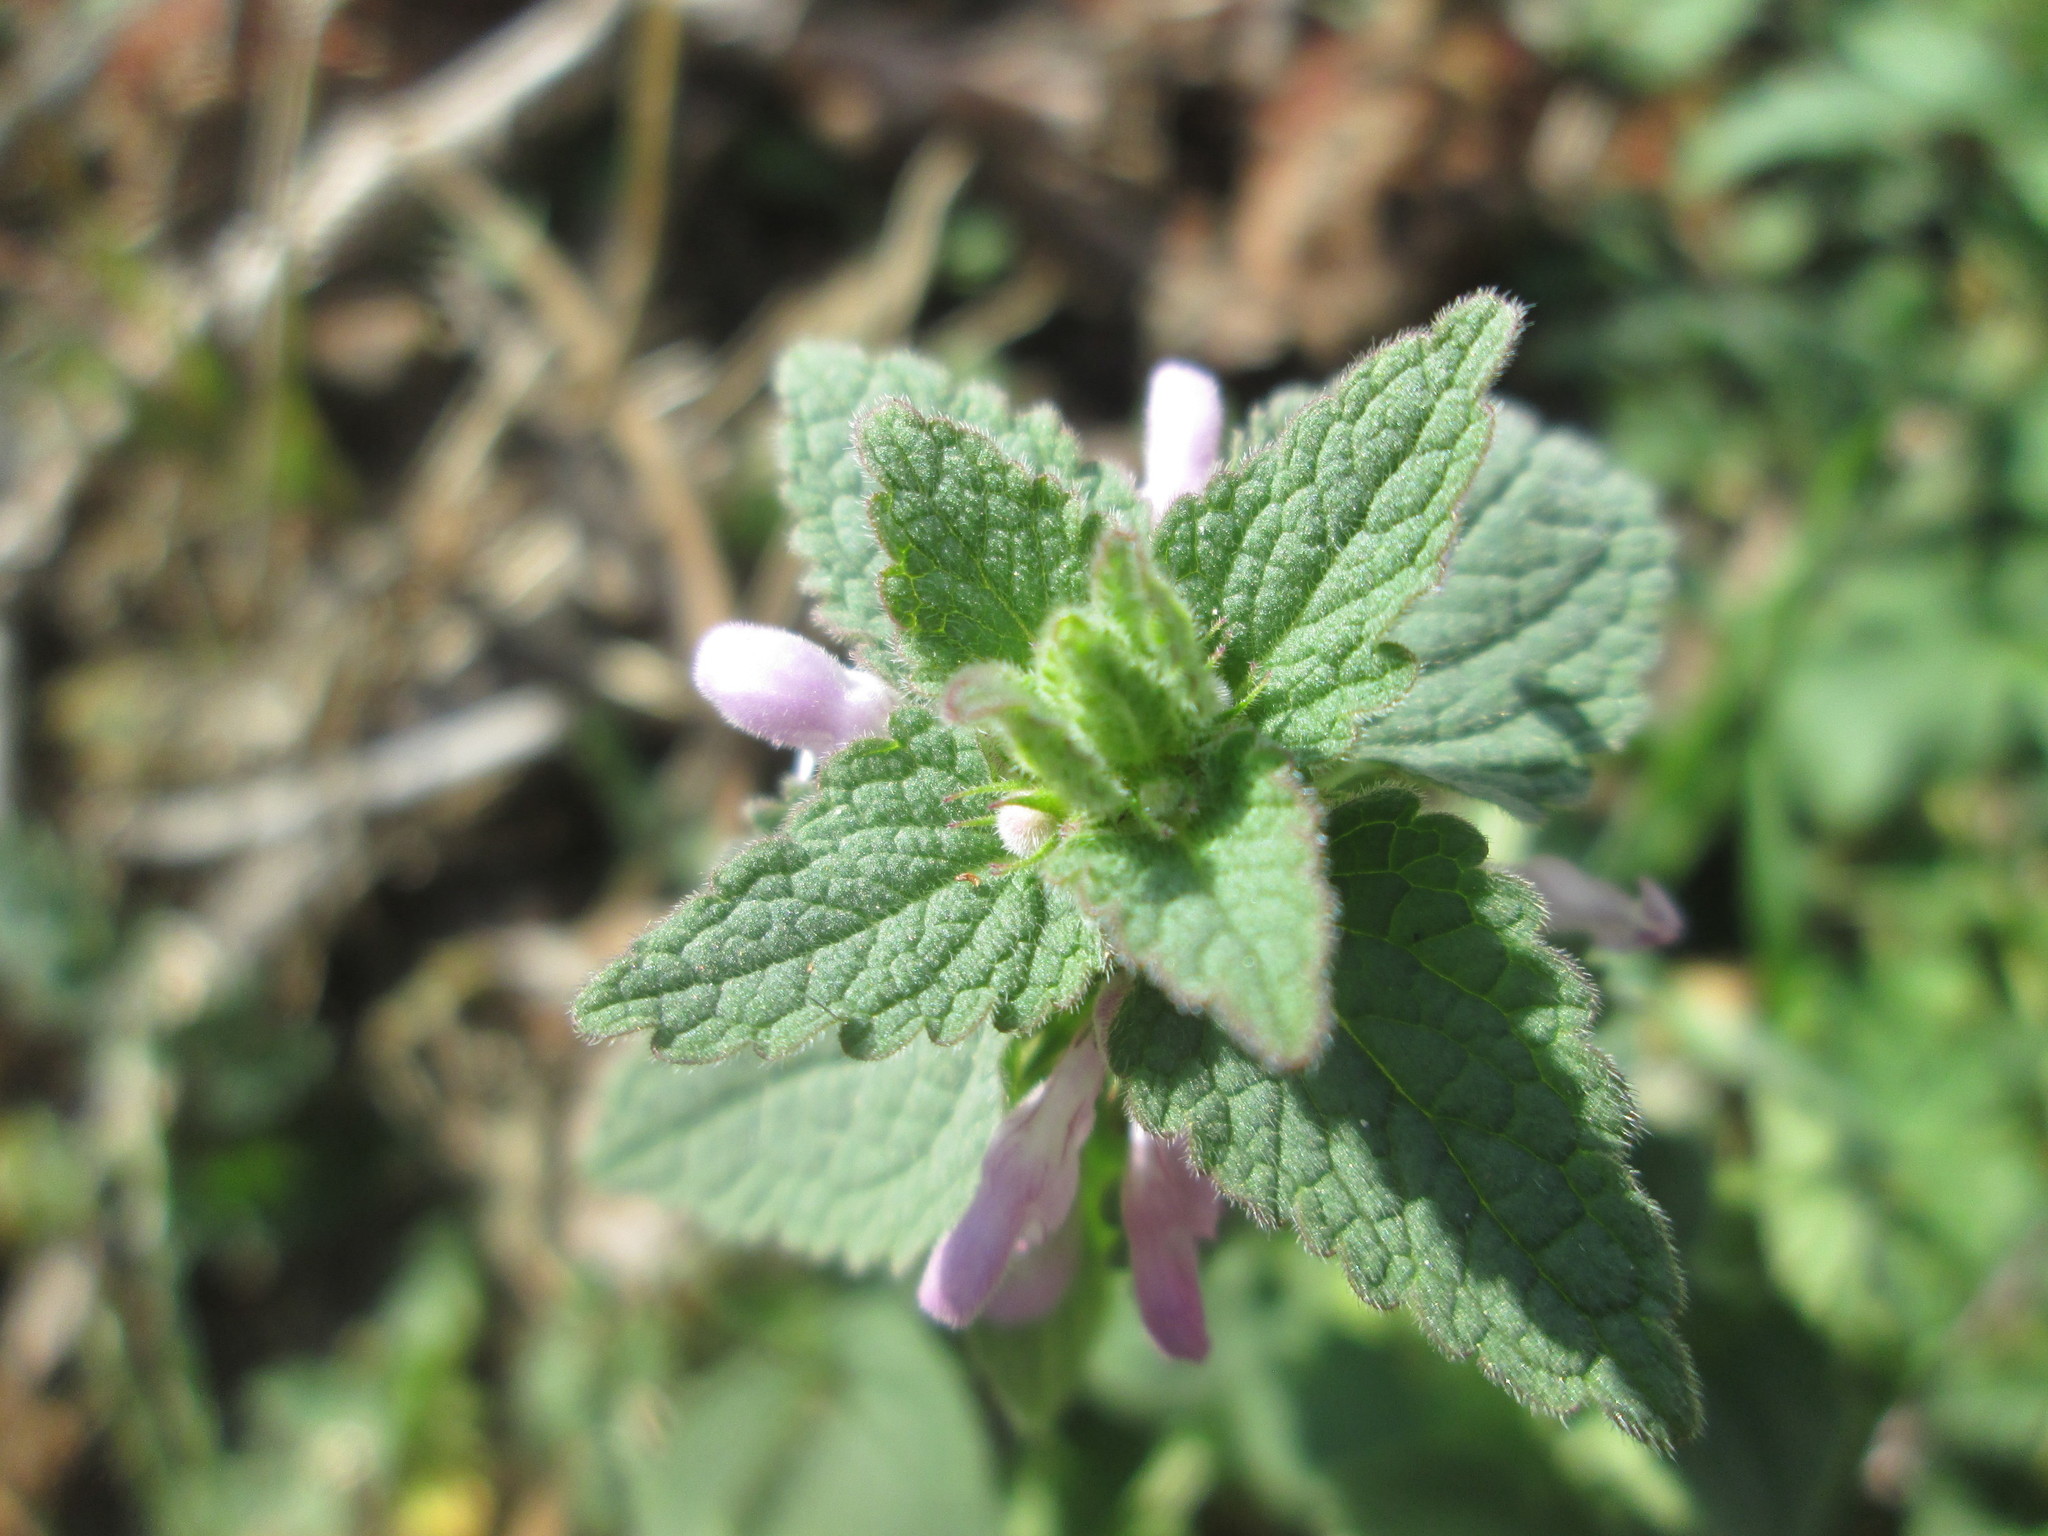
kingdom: Plantae
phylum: Tracheophyta
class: Magnoliopsida
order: Lamiales
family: Lamiaceae
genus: Lamium
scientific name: Lamium purpureum
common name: Red dead-nettle
